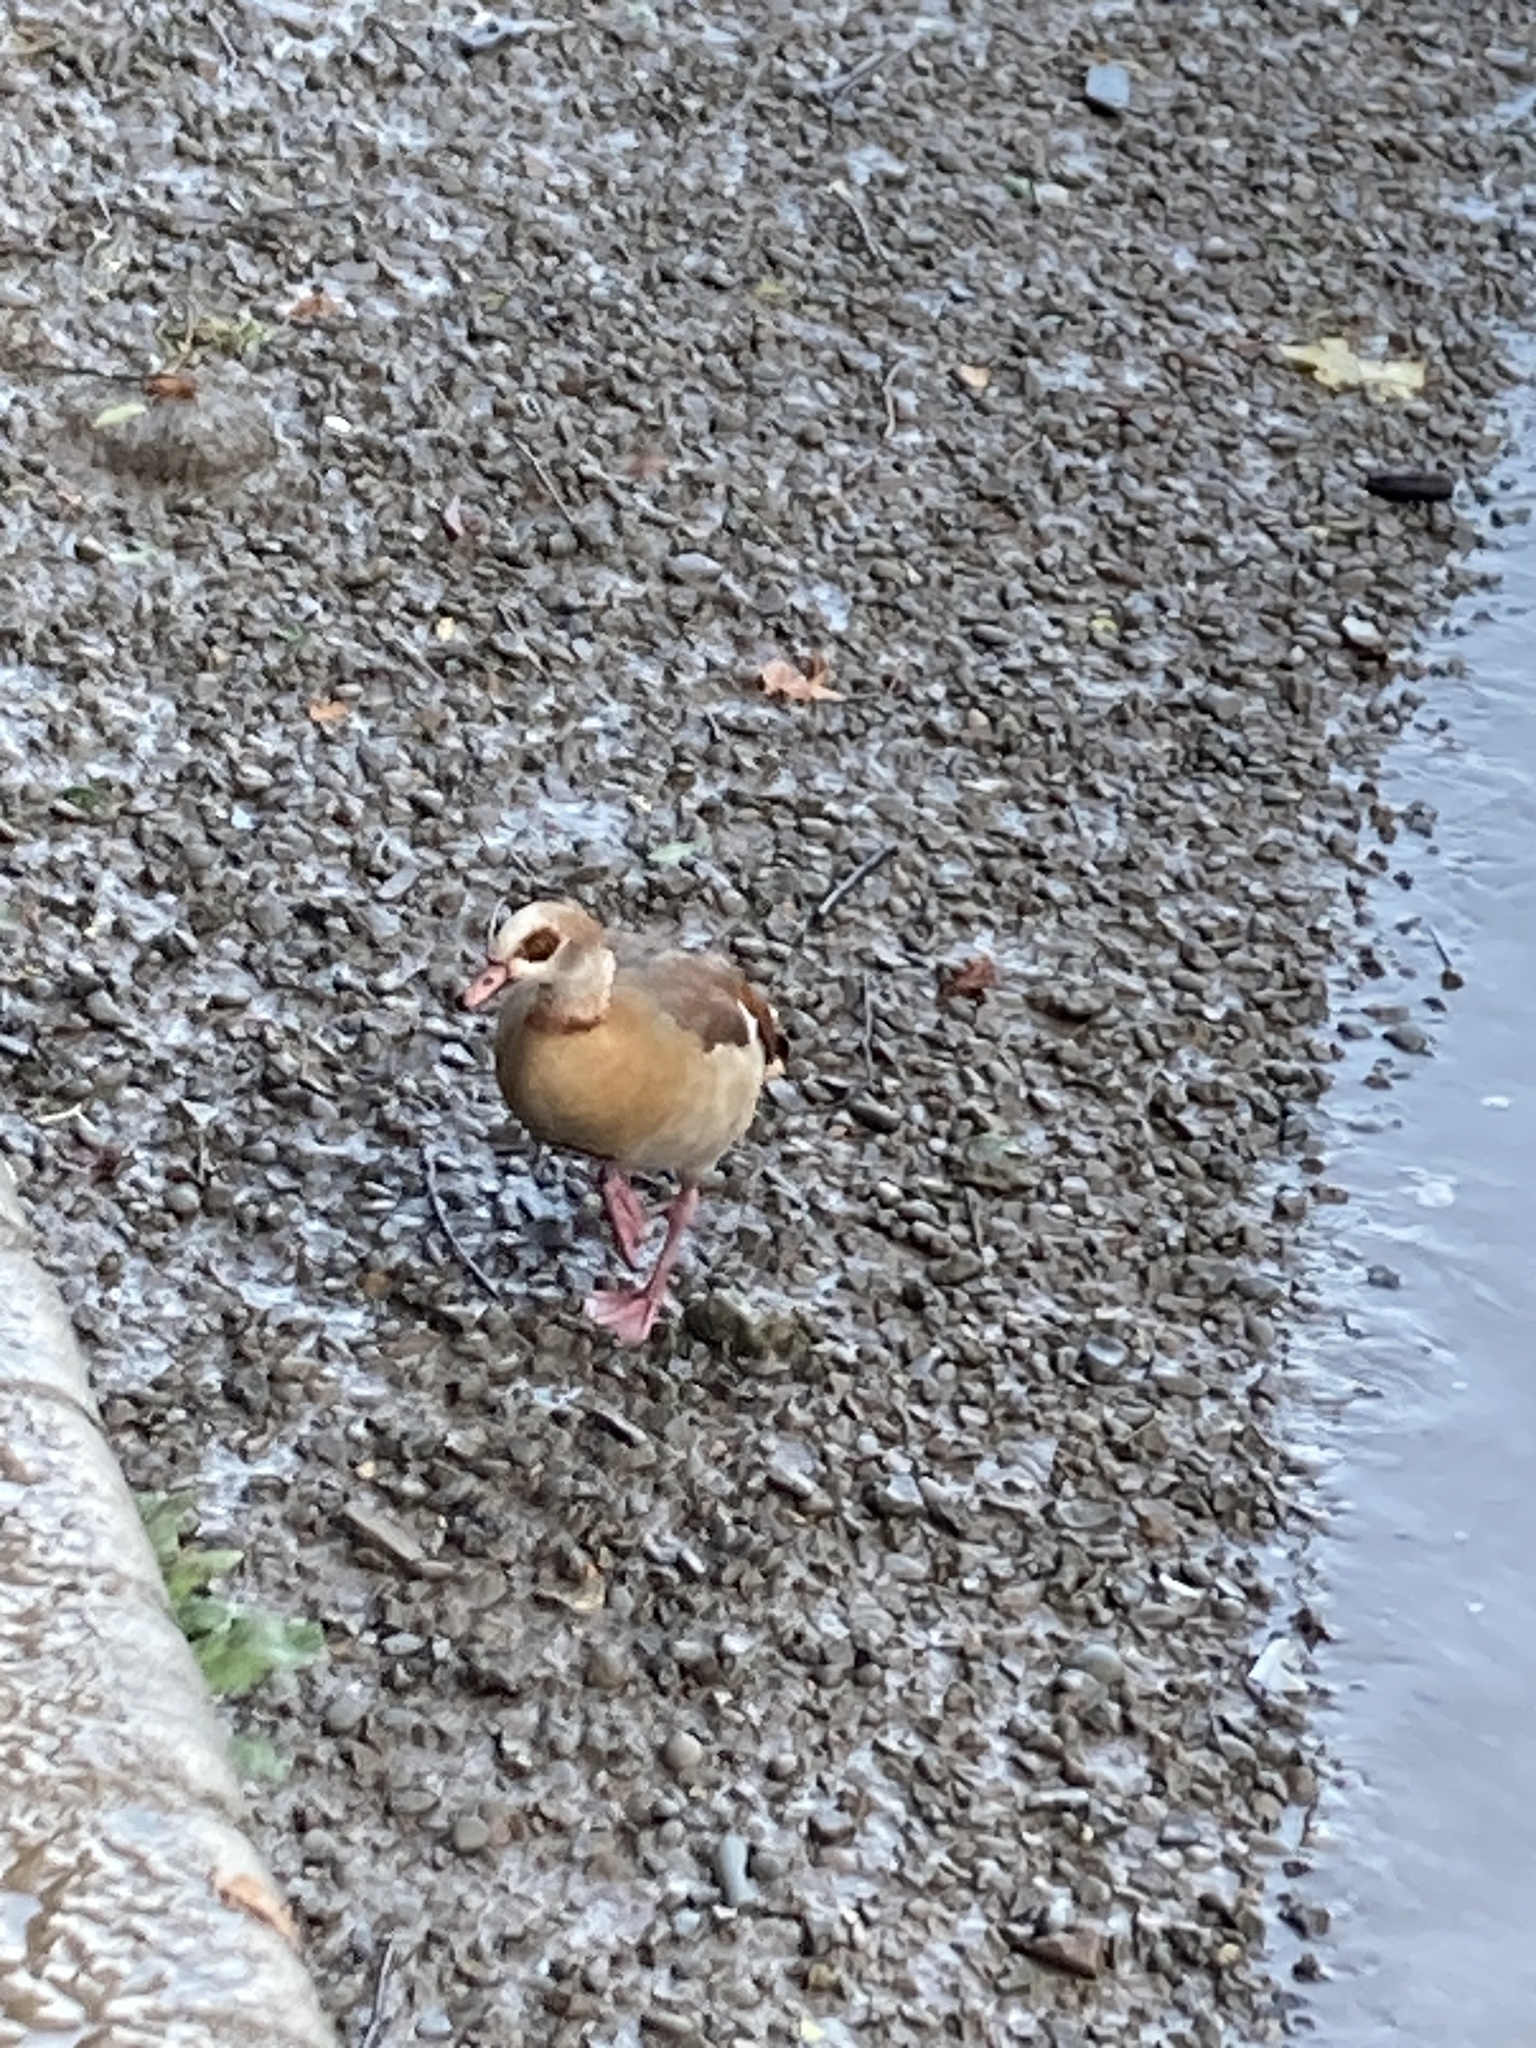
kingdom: Animalia
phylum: Chordata
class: Aves
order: Anseriformes
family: Anatidae
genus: Alopochen
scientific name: Alopochen aegyptiaca
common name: Egyptian goose
